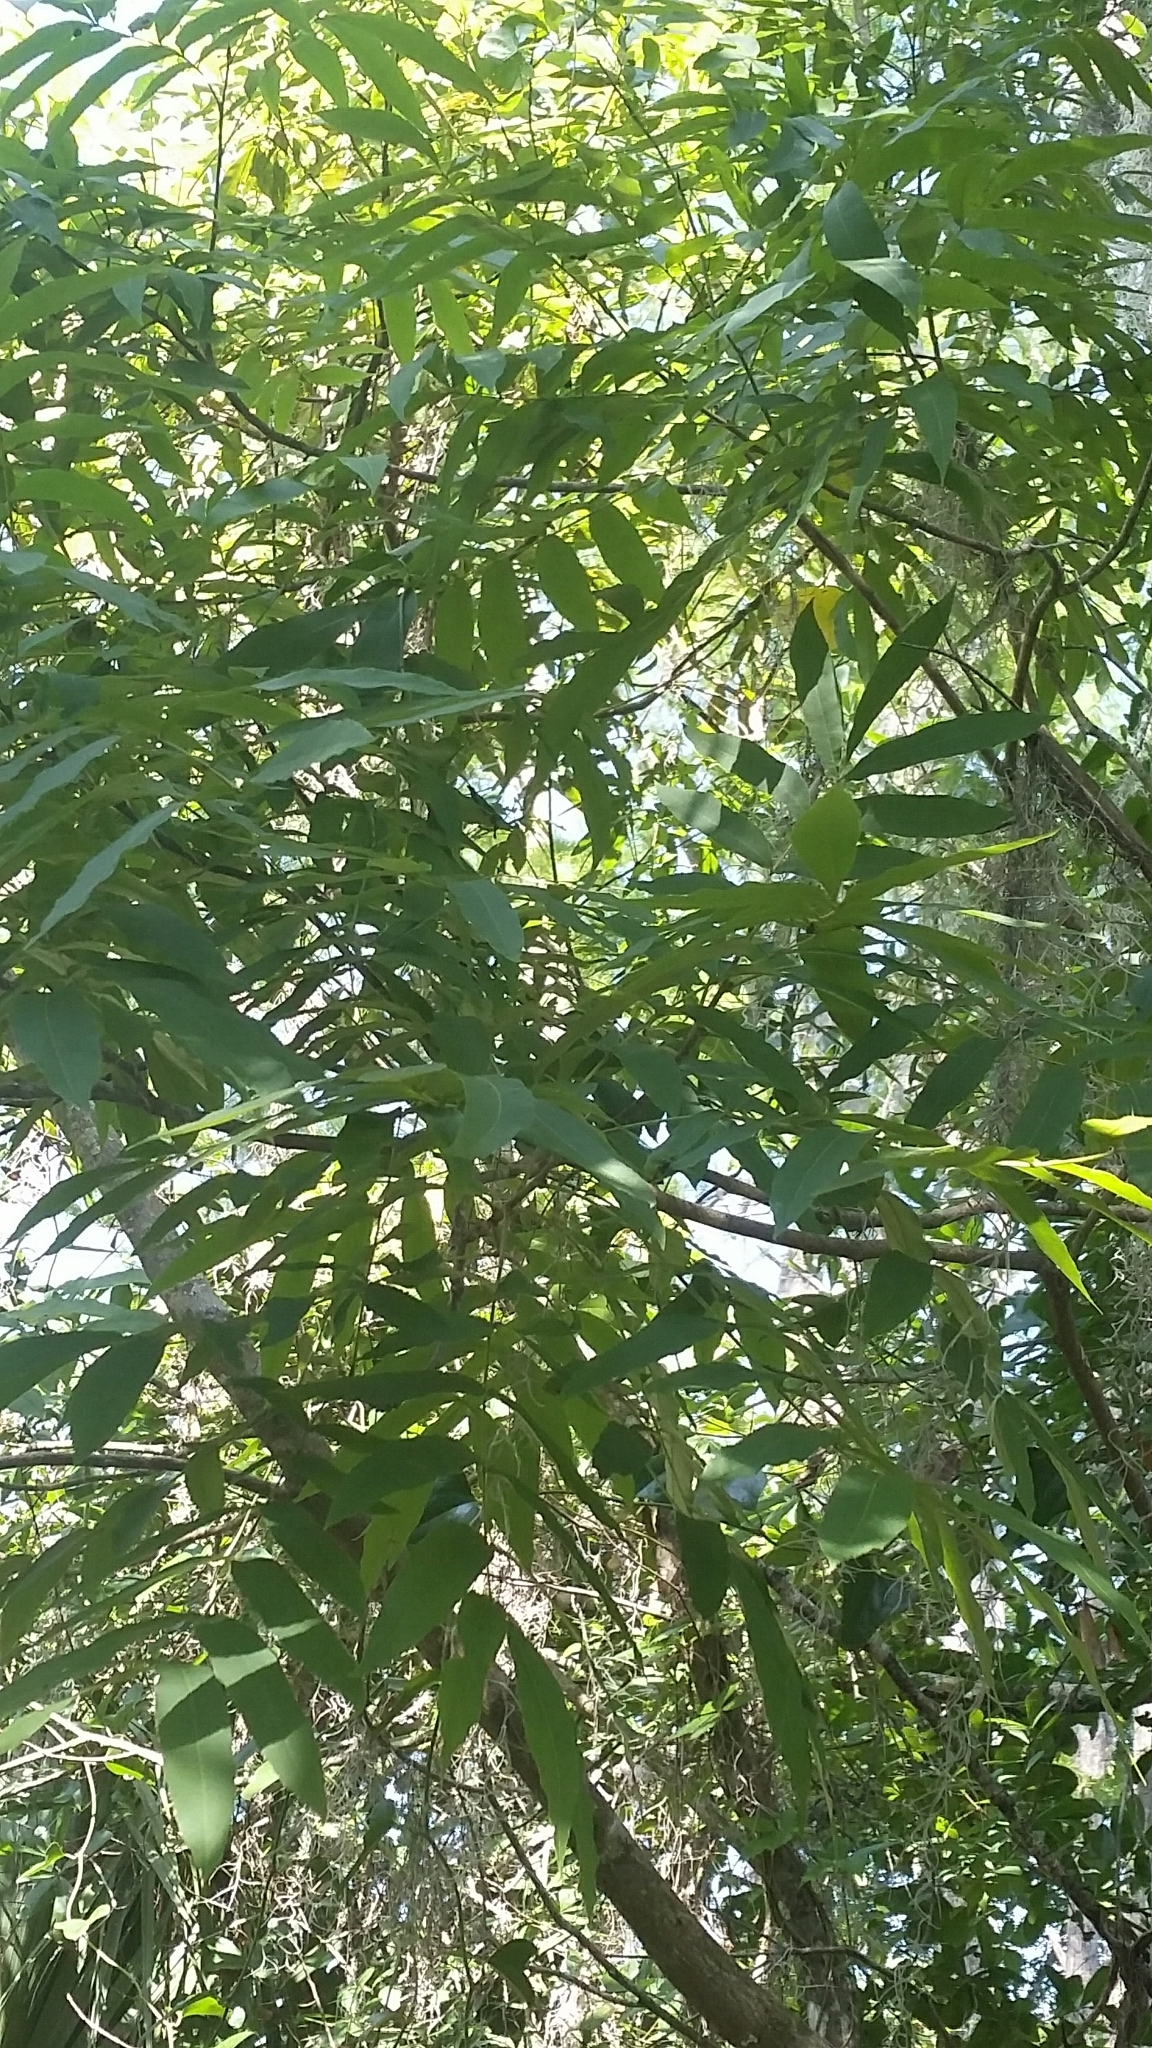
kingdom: Plantae
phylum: Tracheophyta
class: Magnoliopsida
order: Fagales
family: Juglandaceae
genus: Carya
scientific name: Carya aquatica
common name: Water hickory
